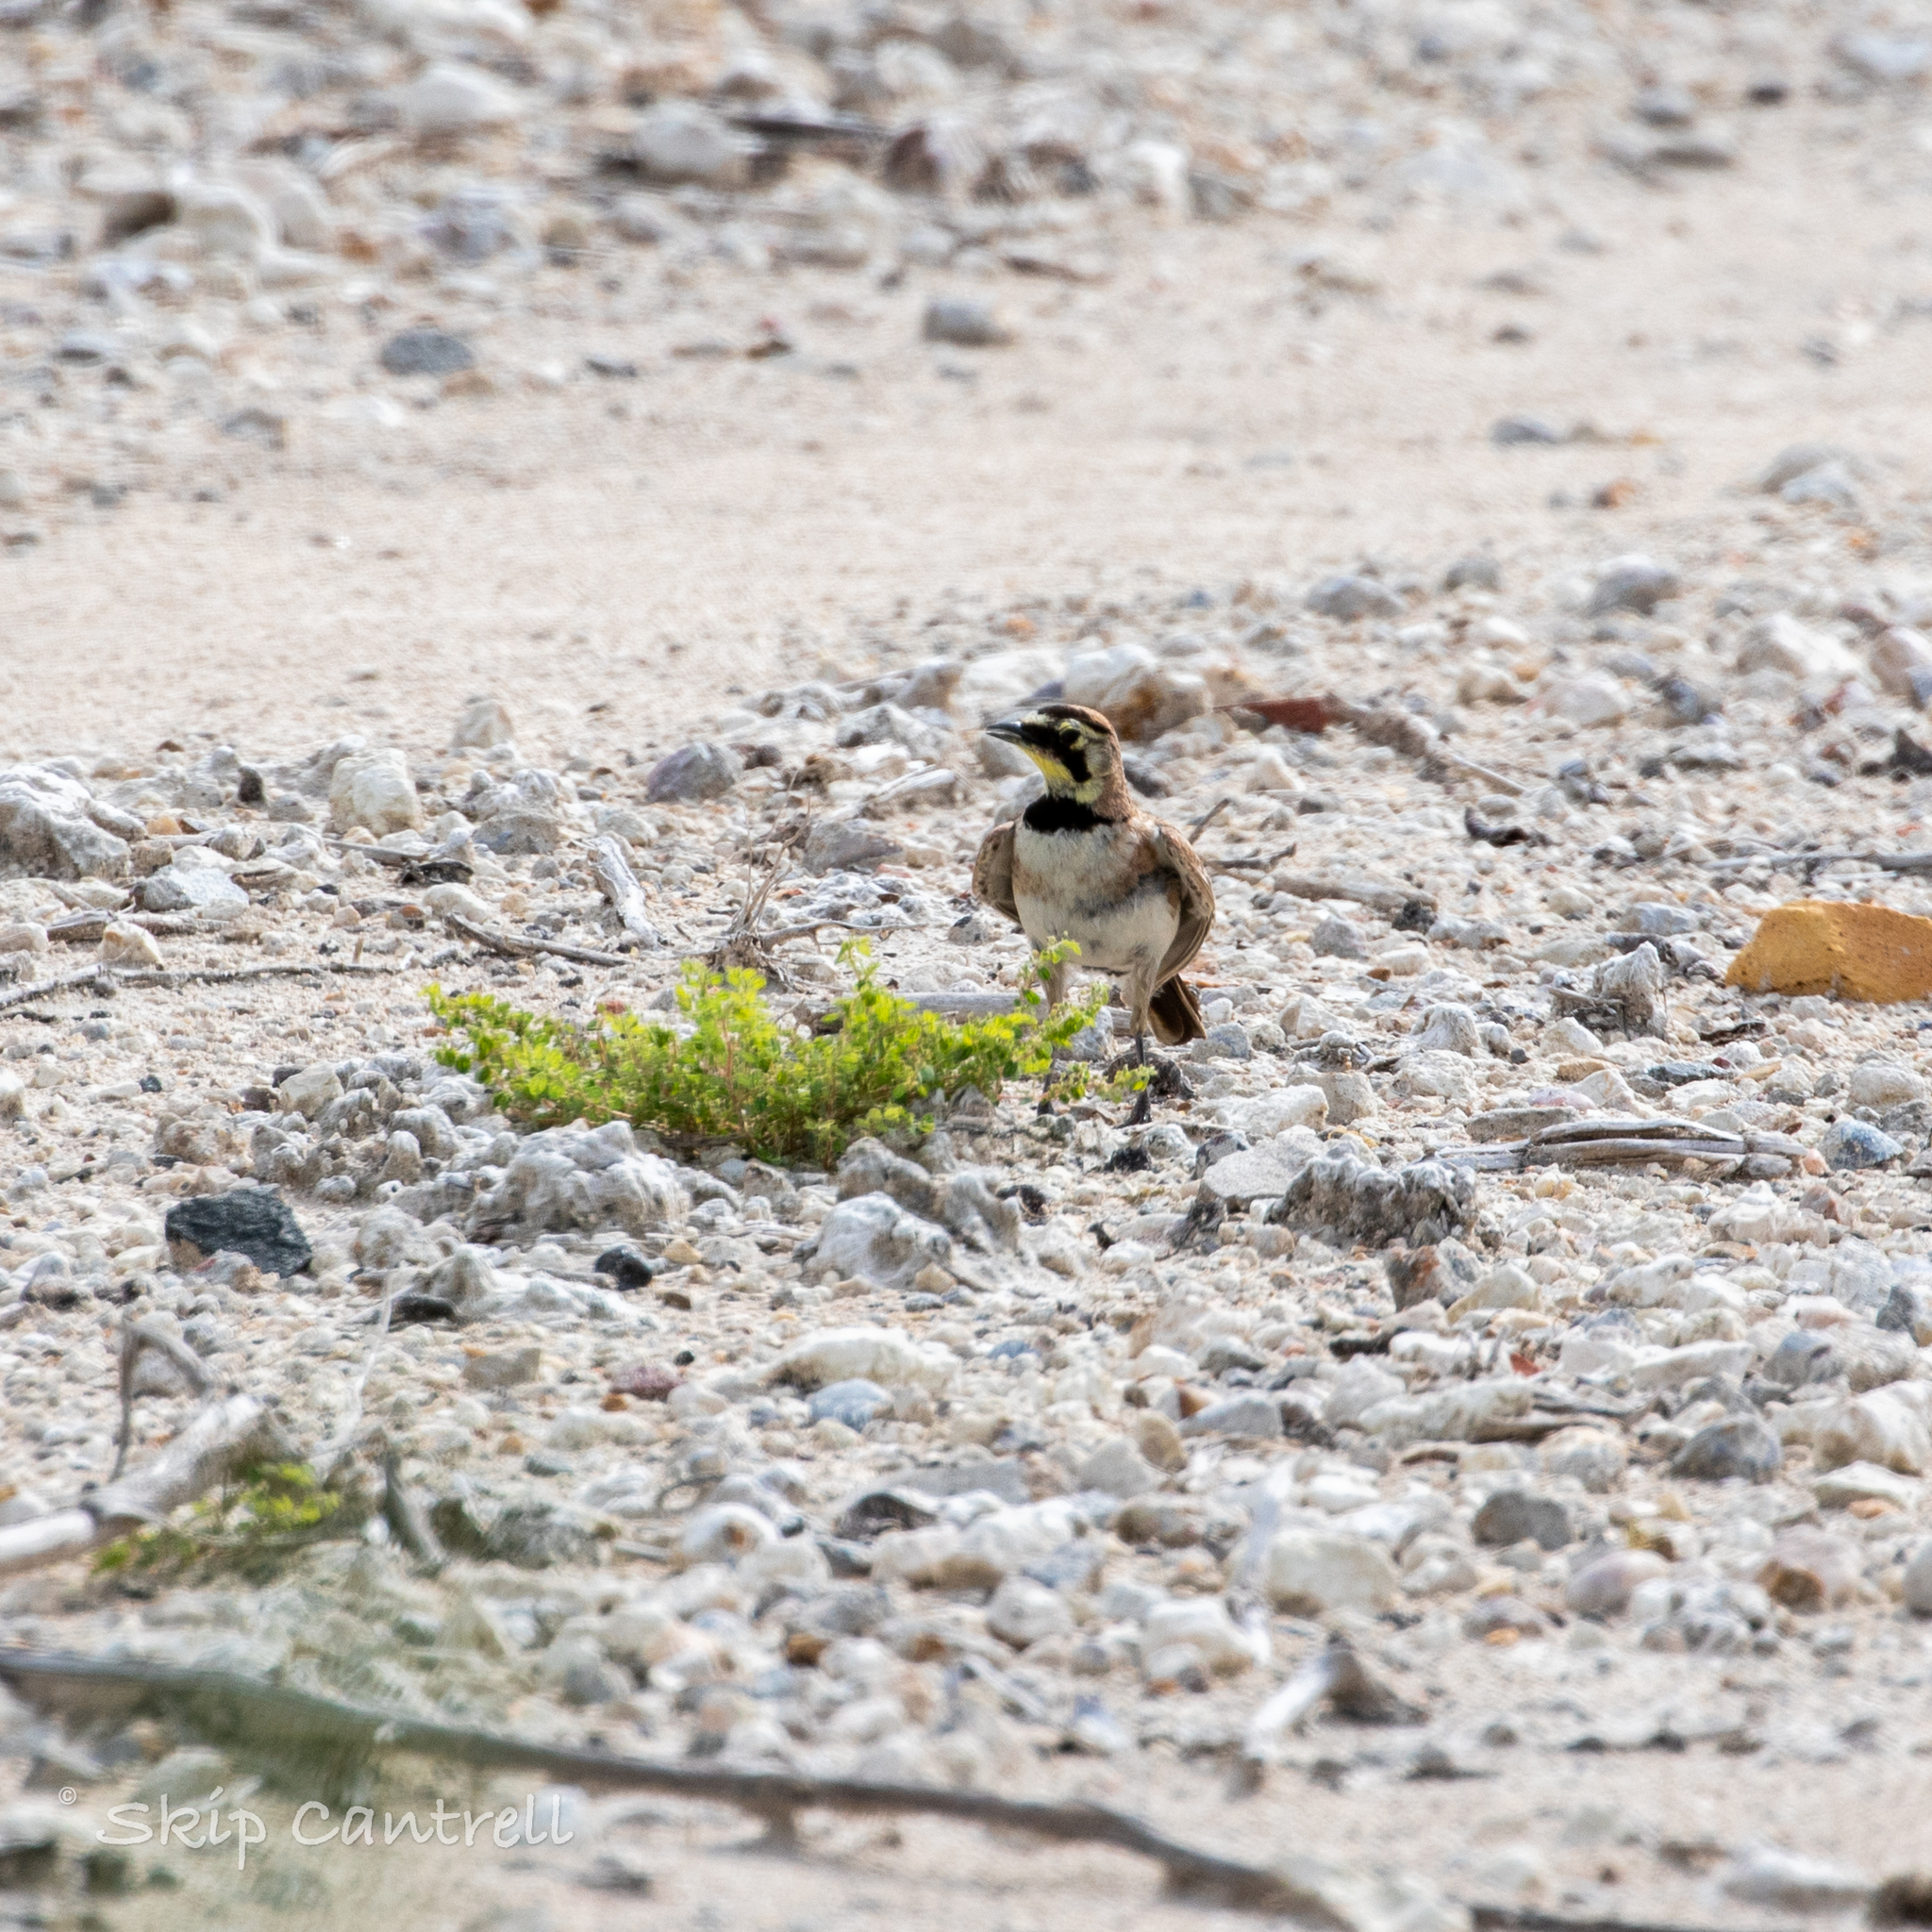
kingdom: Animalia
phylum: Chordata
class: Aves
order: Passeriformes
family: Alaudidae
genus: Eremophila
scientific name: Eremophila alpestris
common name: Horned lark
